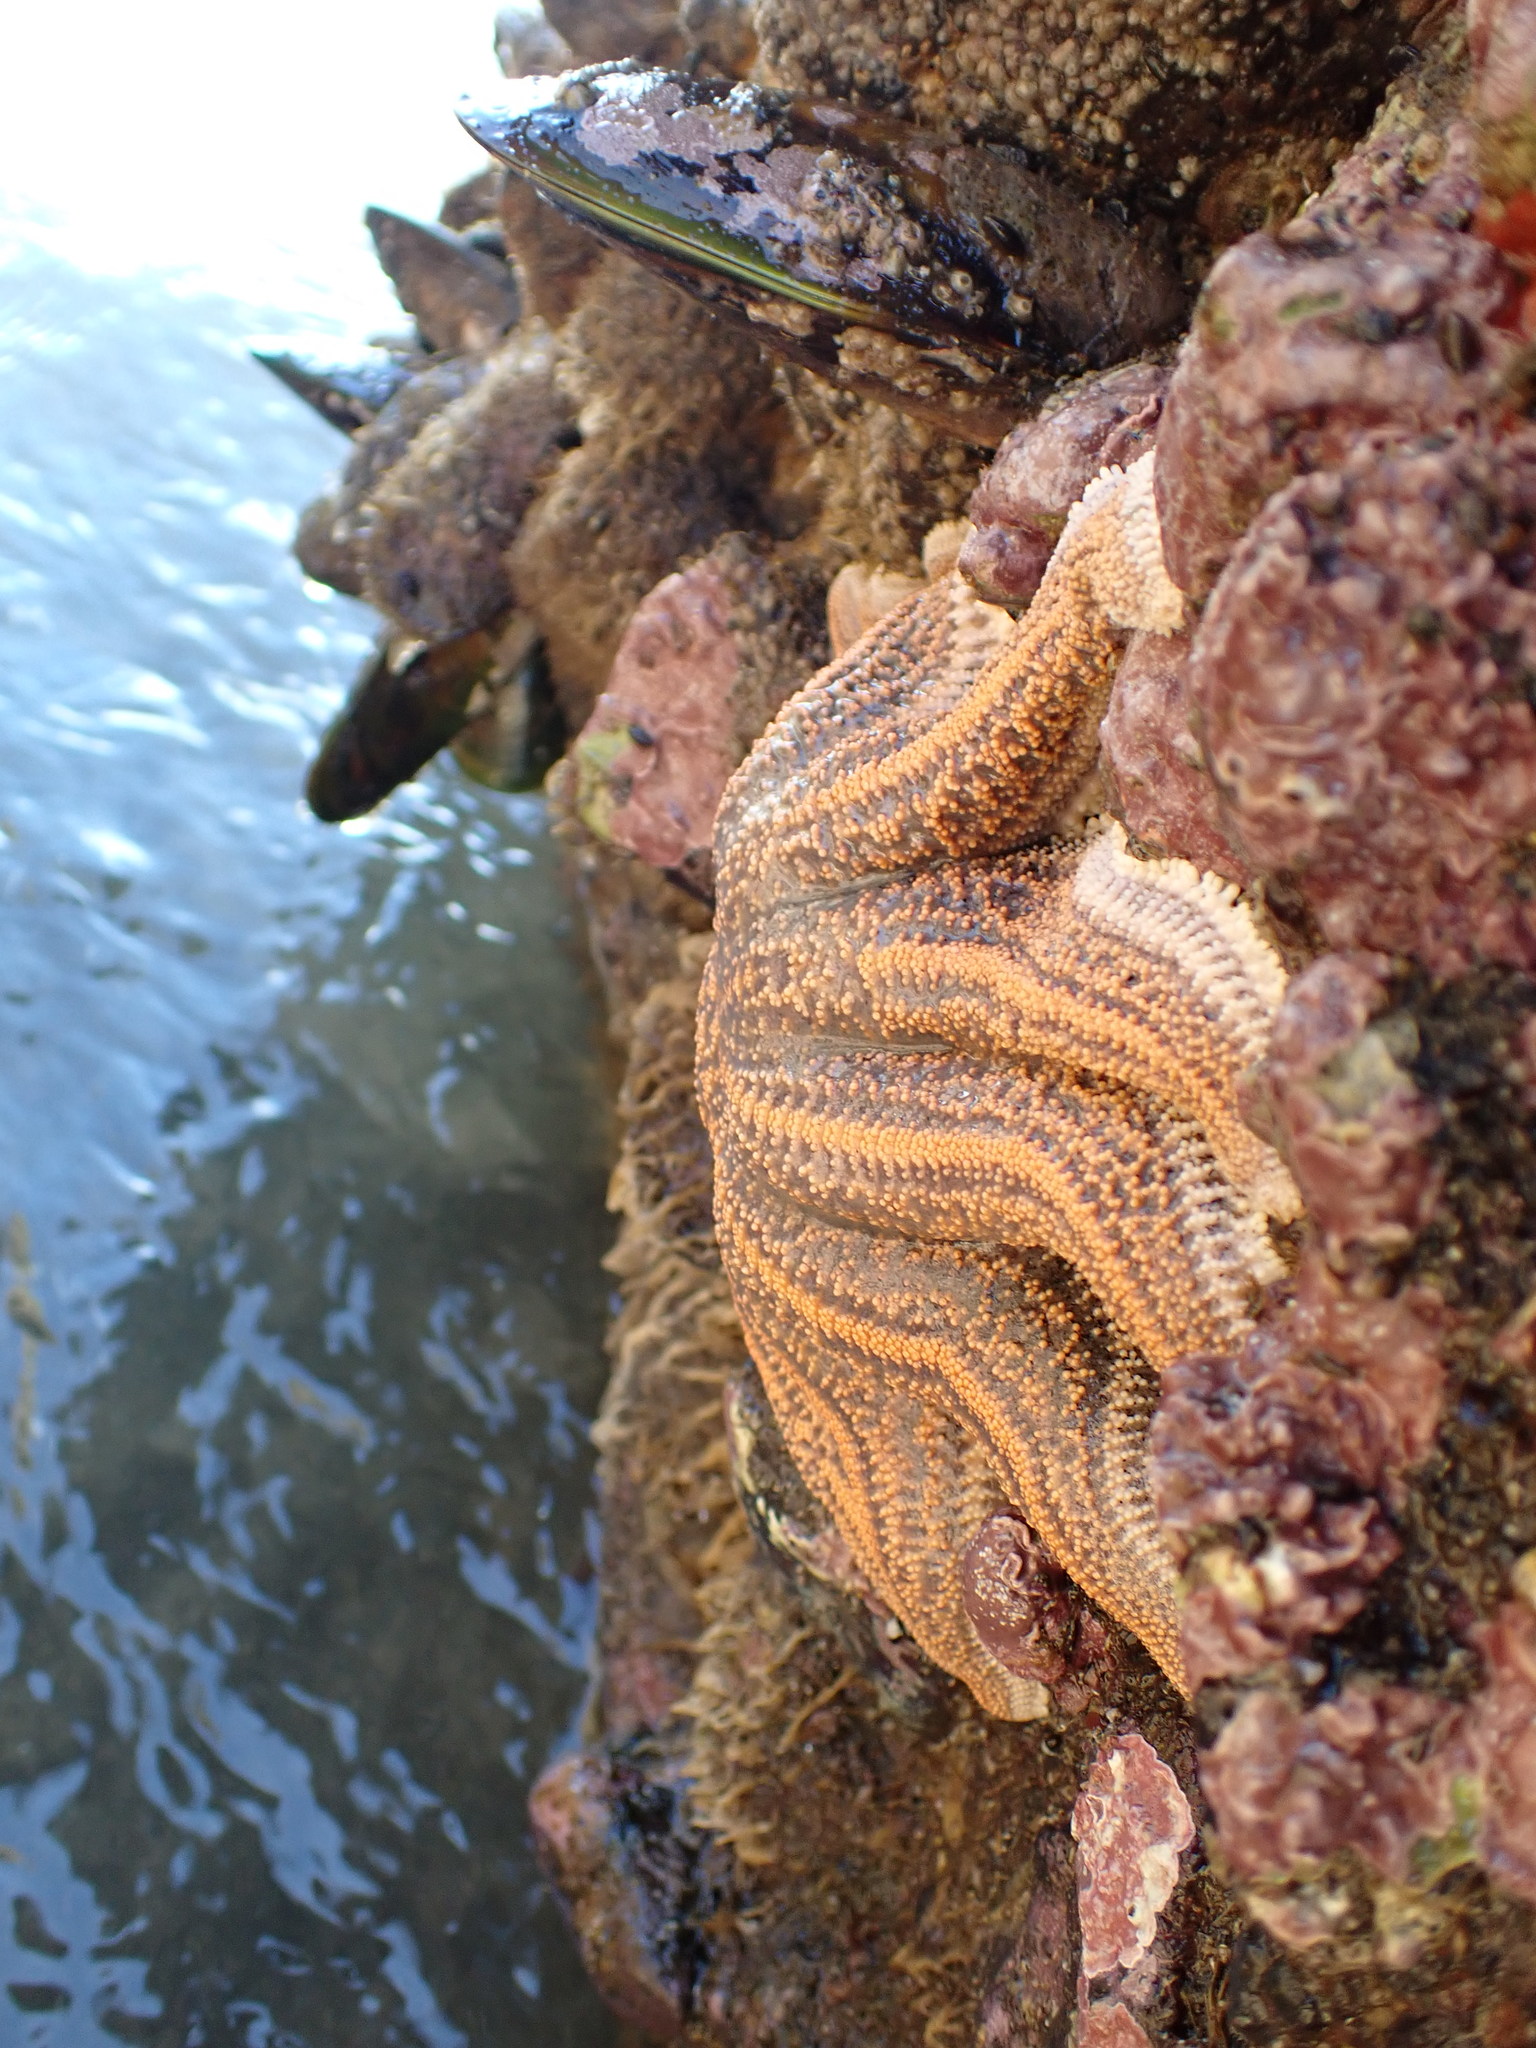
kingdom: Animalia
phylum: Echinodermata
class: Asteroidea
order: Forcipulatida
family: Stichasteridae
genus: Stichaster
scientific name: Stichaster australis
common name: Reef starfish
